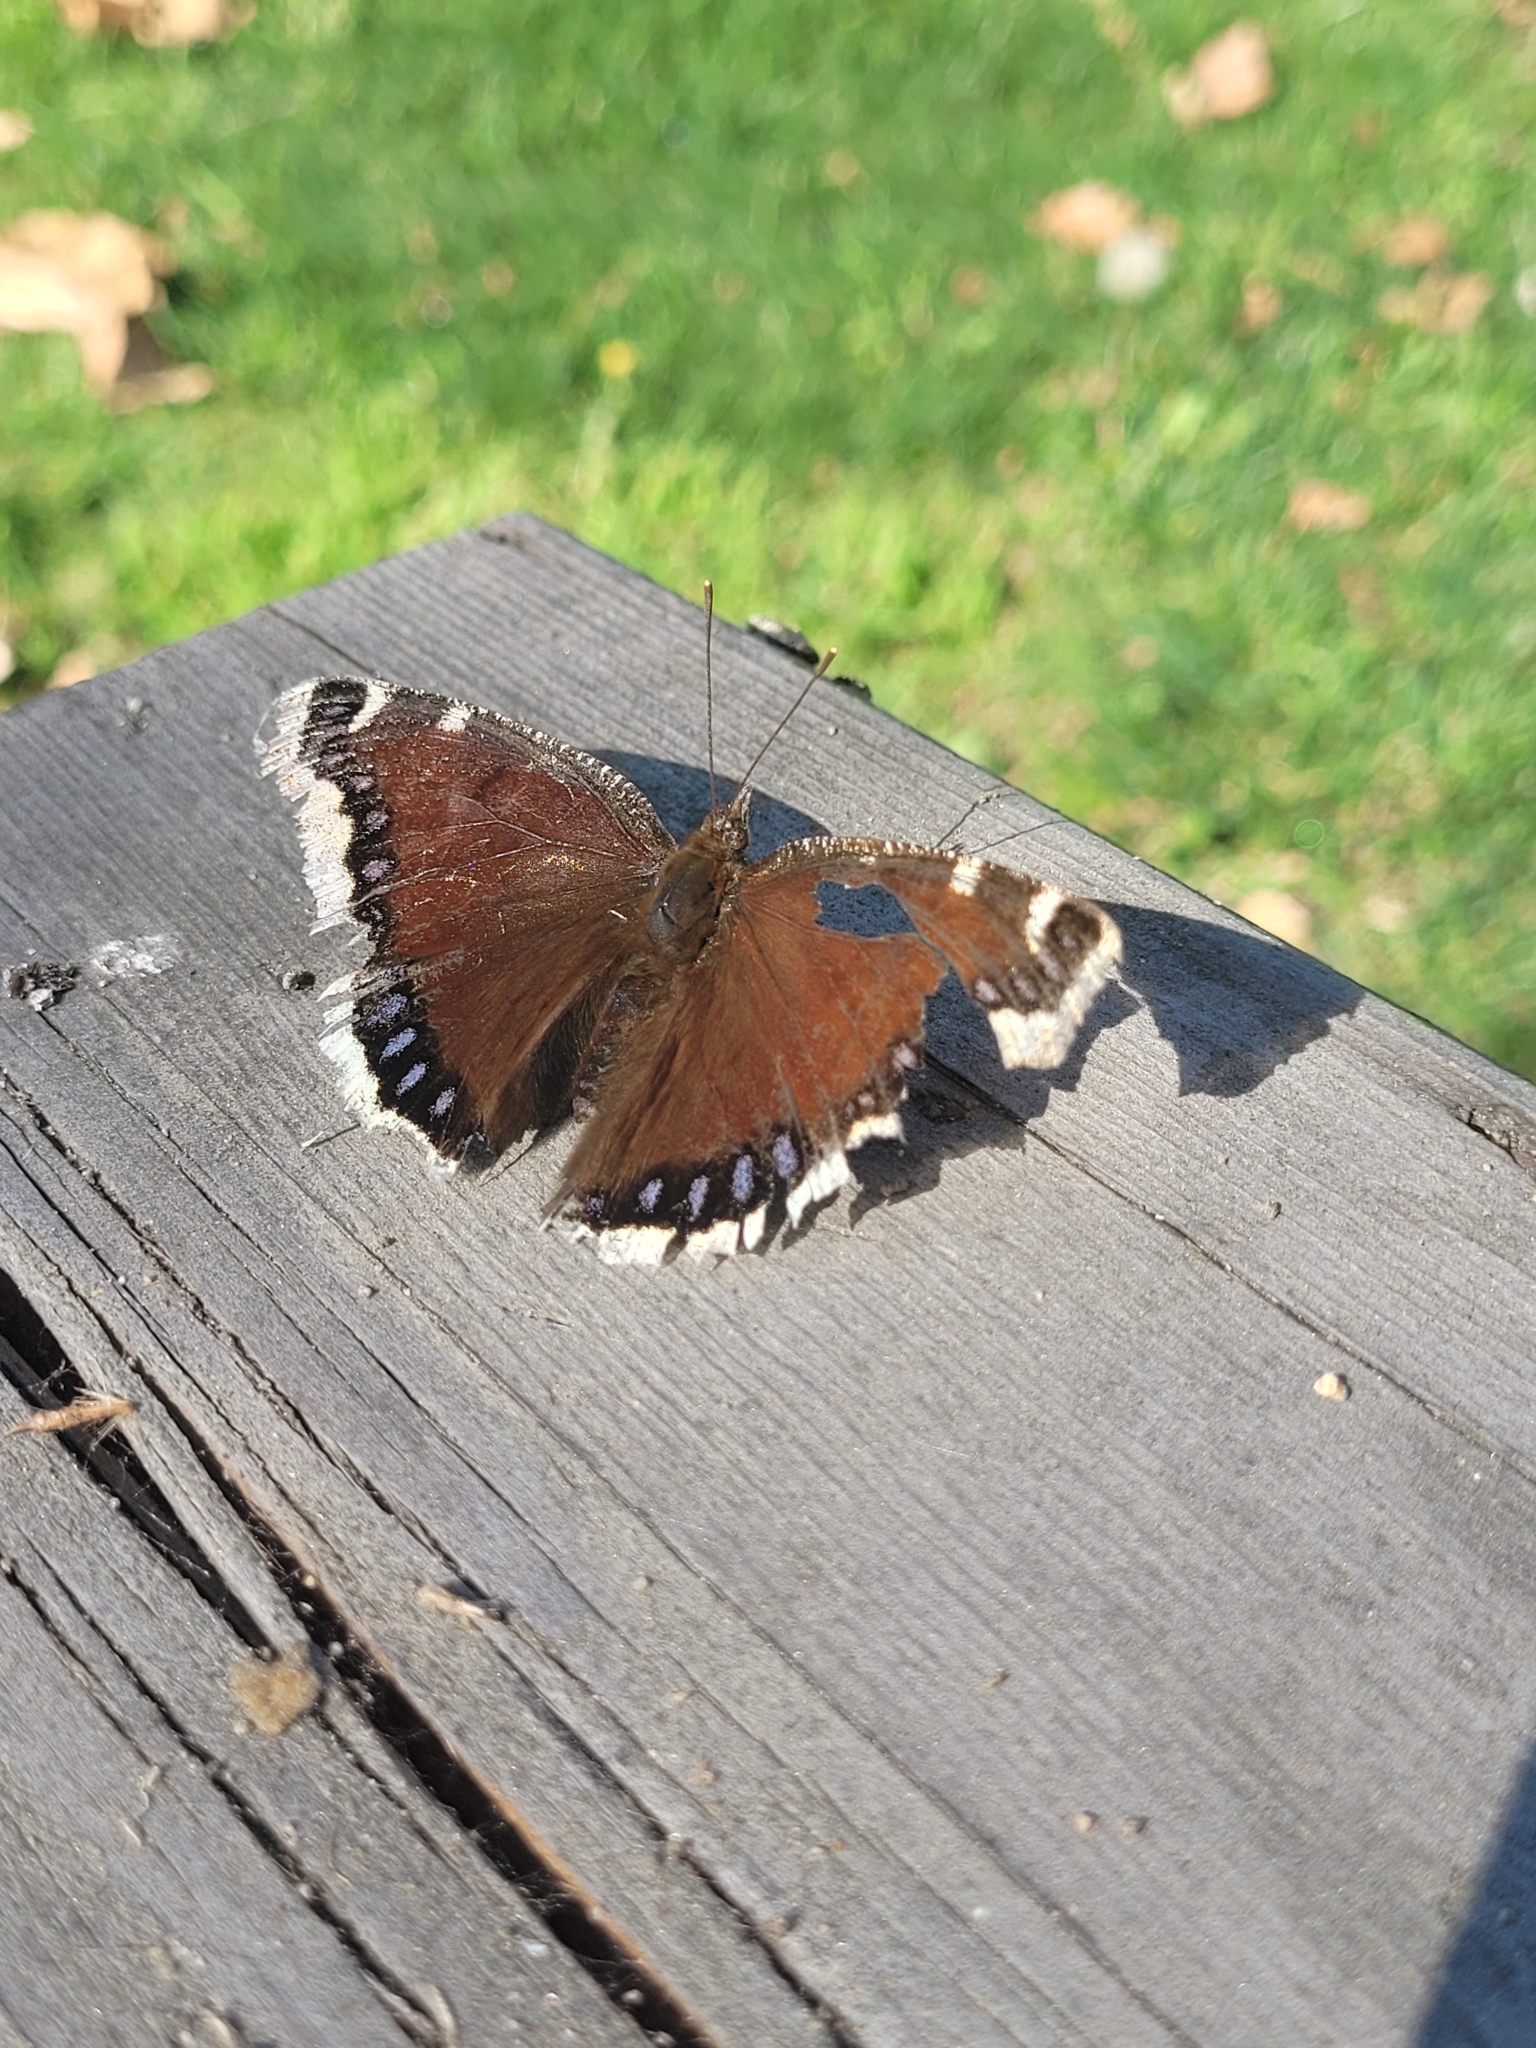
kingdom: Animalia
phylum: Arthropoda
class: Insecta
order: Lepidoptera
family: Nymphalidae
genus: Nymphalis
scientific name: Nymphalis antiopa
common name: Camberwell beauty
